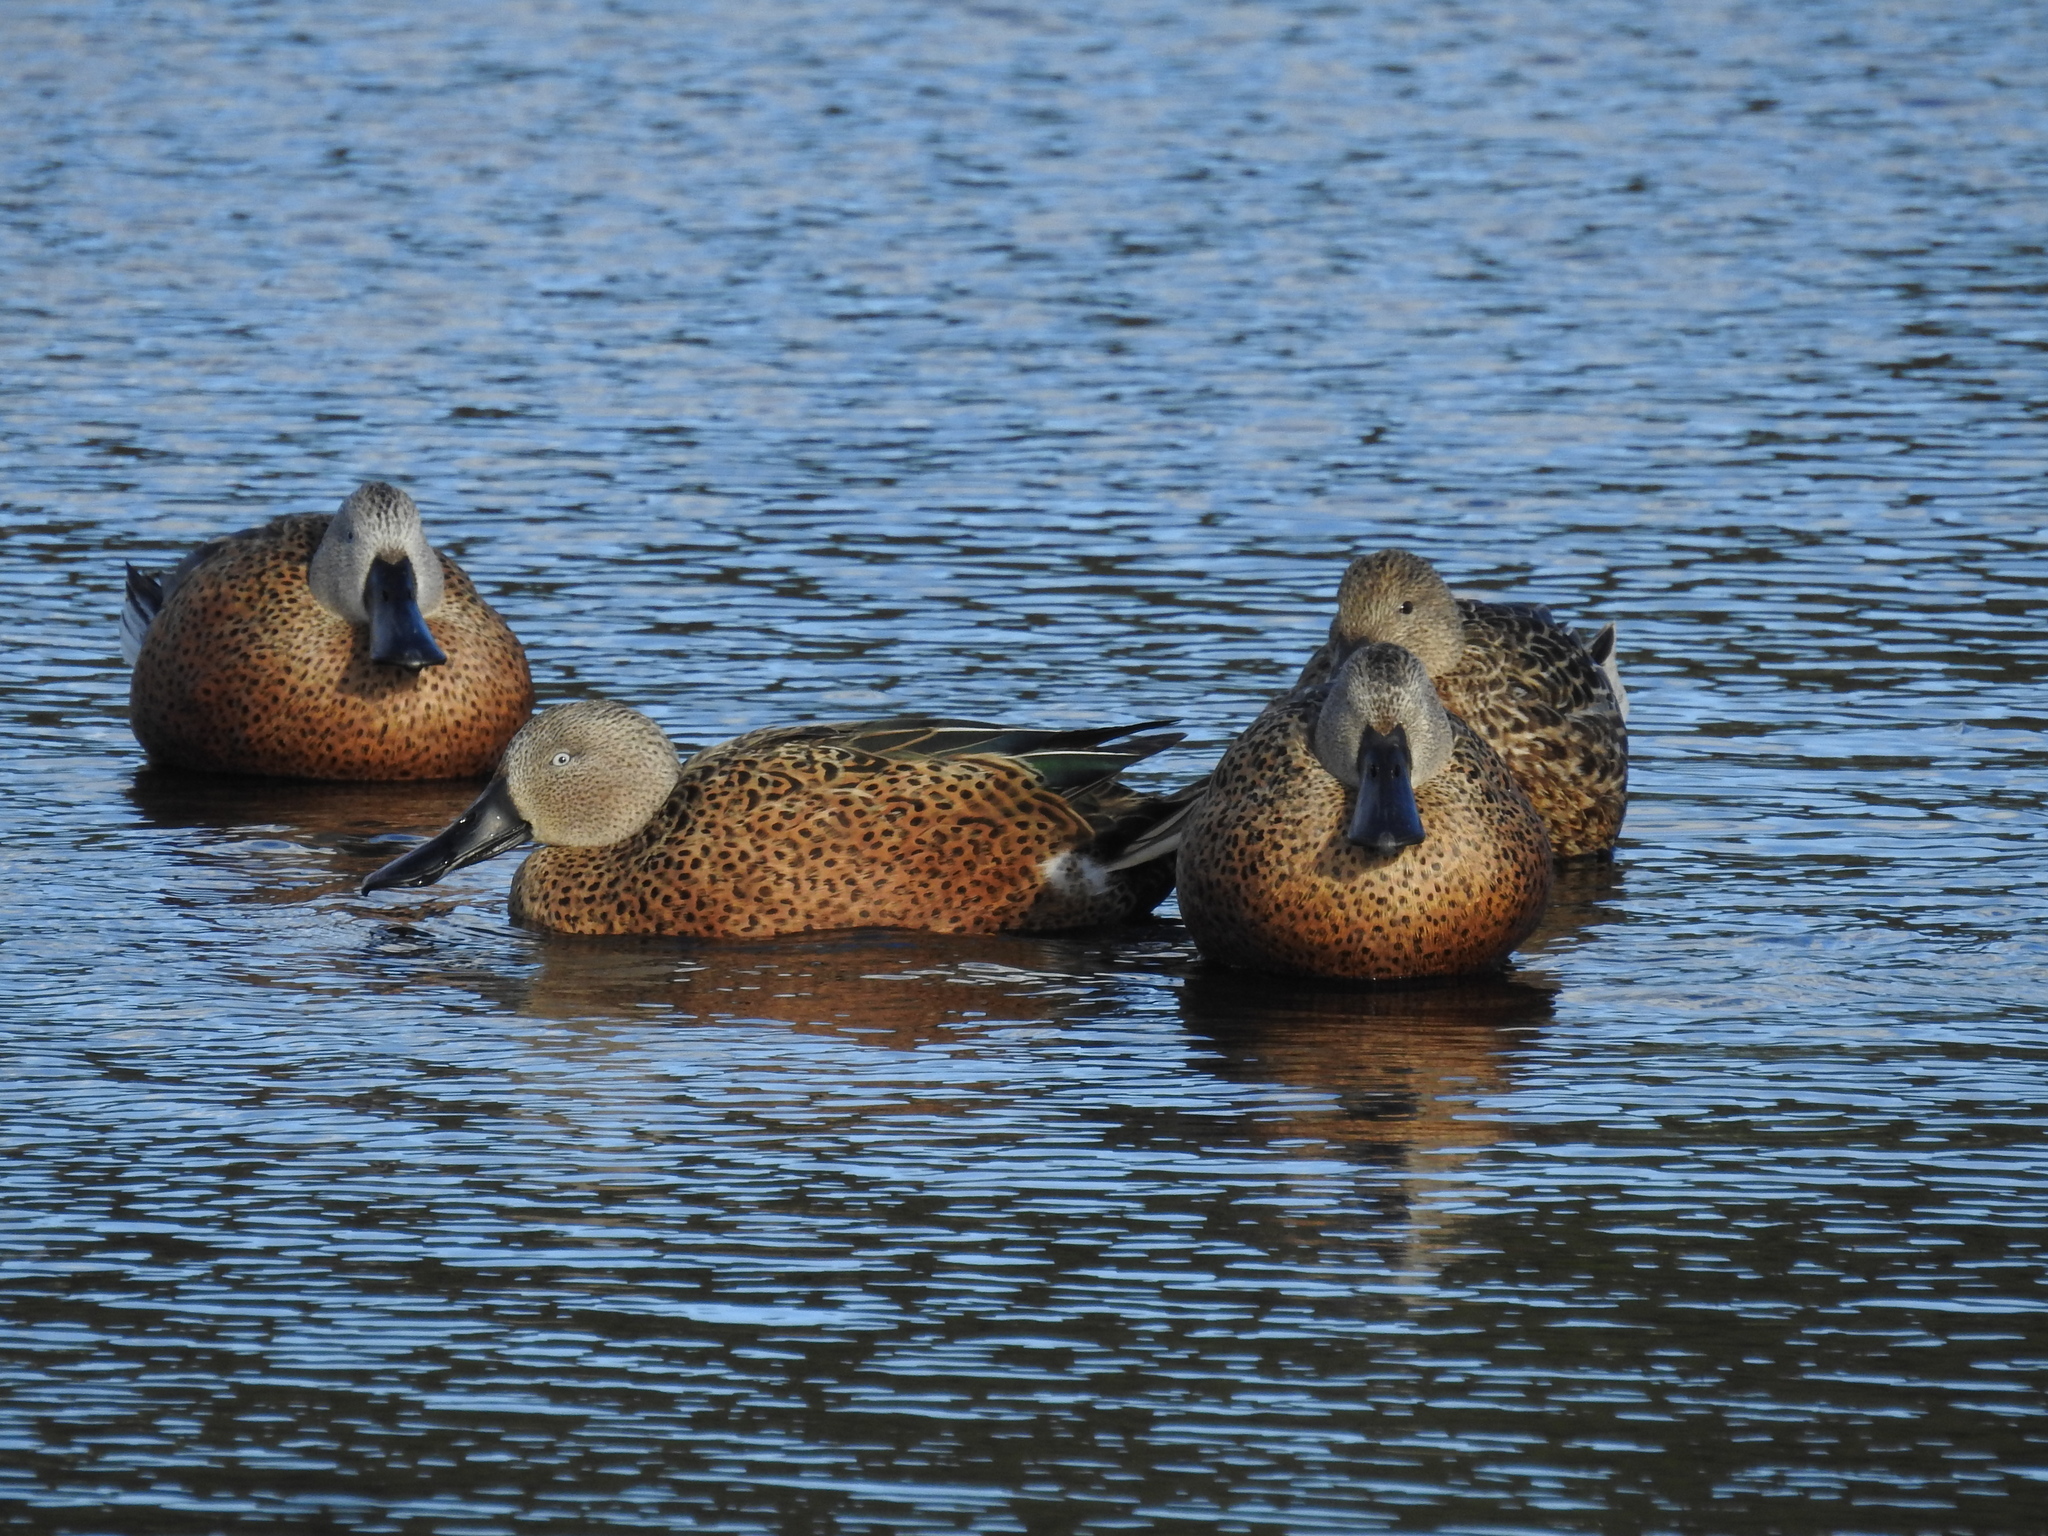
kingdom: Animalia
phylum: Chordata
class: Aves
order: Anseriformes
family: Anatidae
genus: Spatula
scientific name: Spatula platalea
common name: Red shoveler
